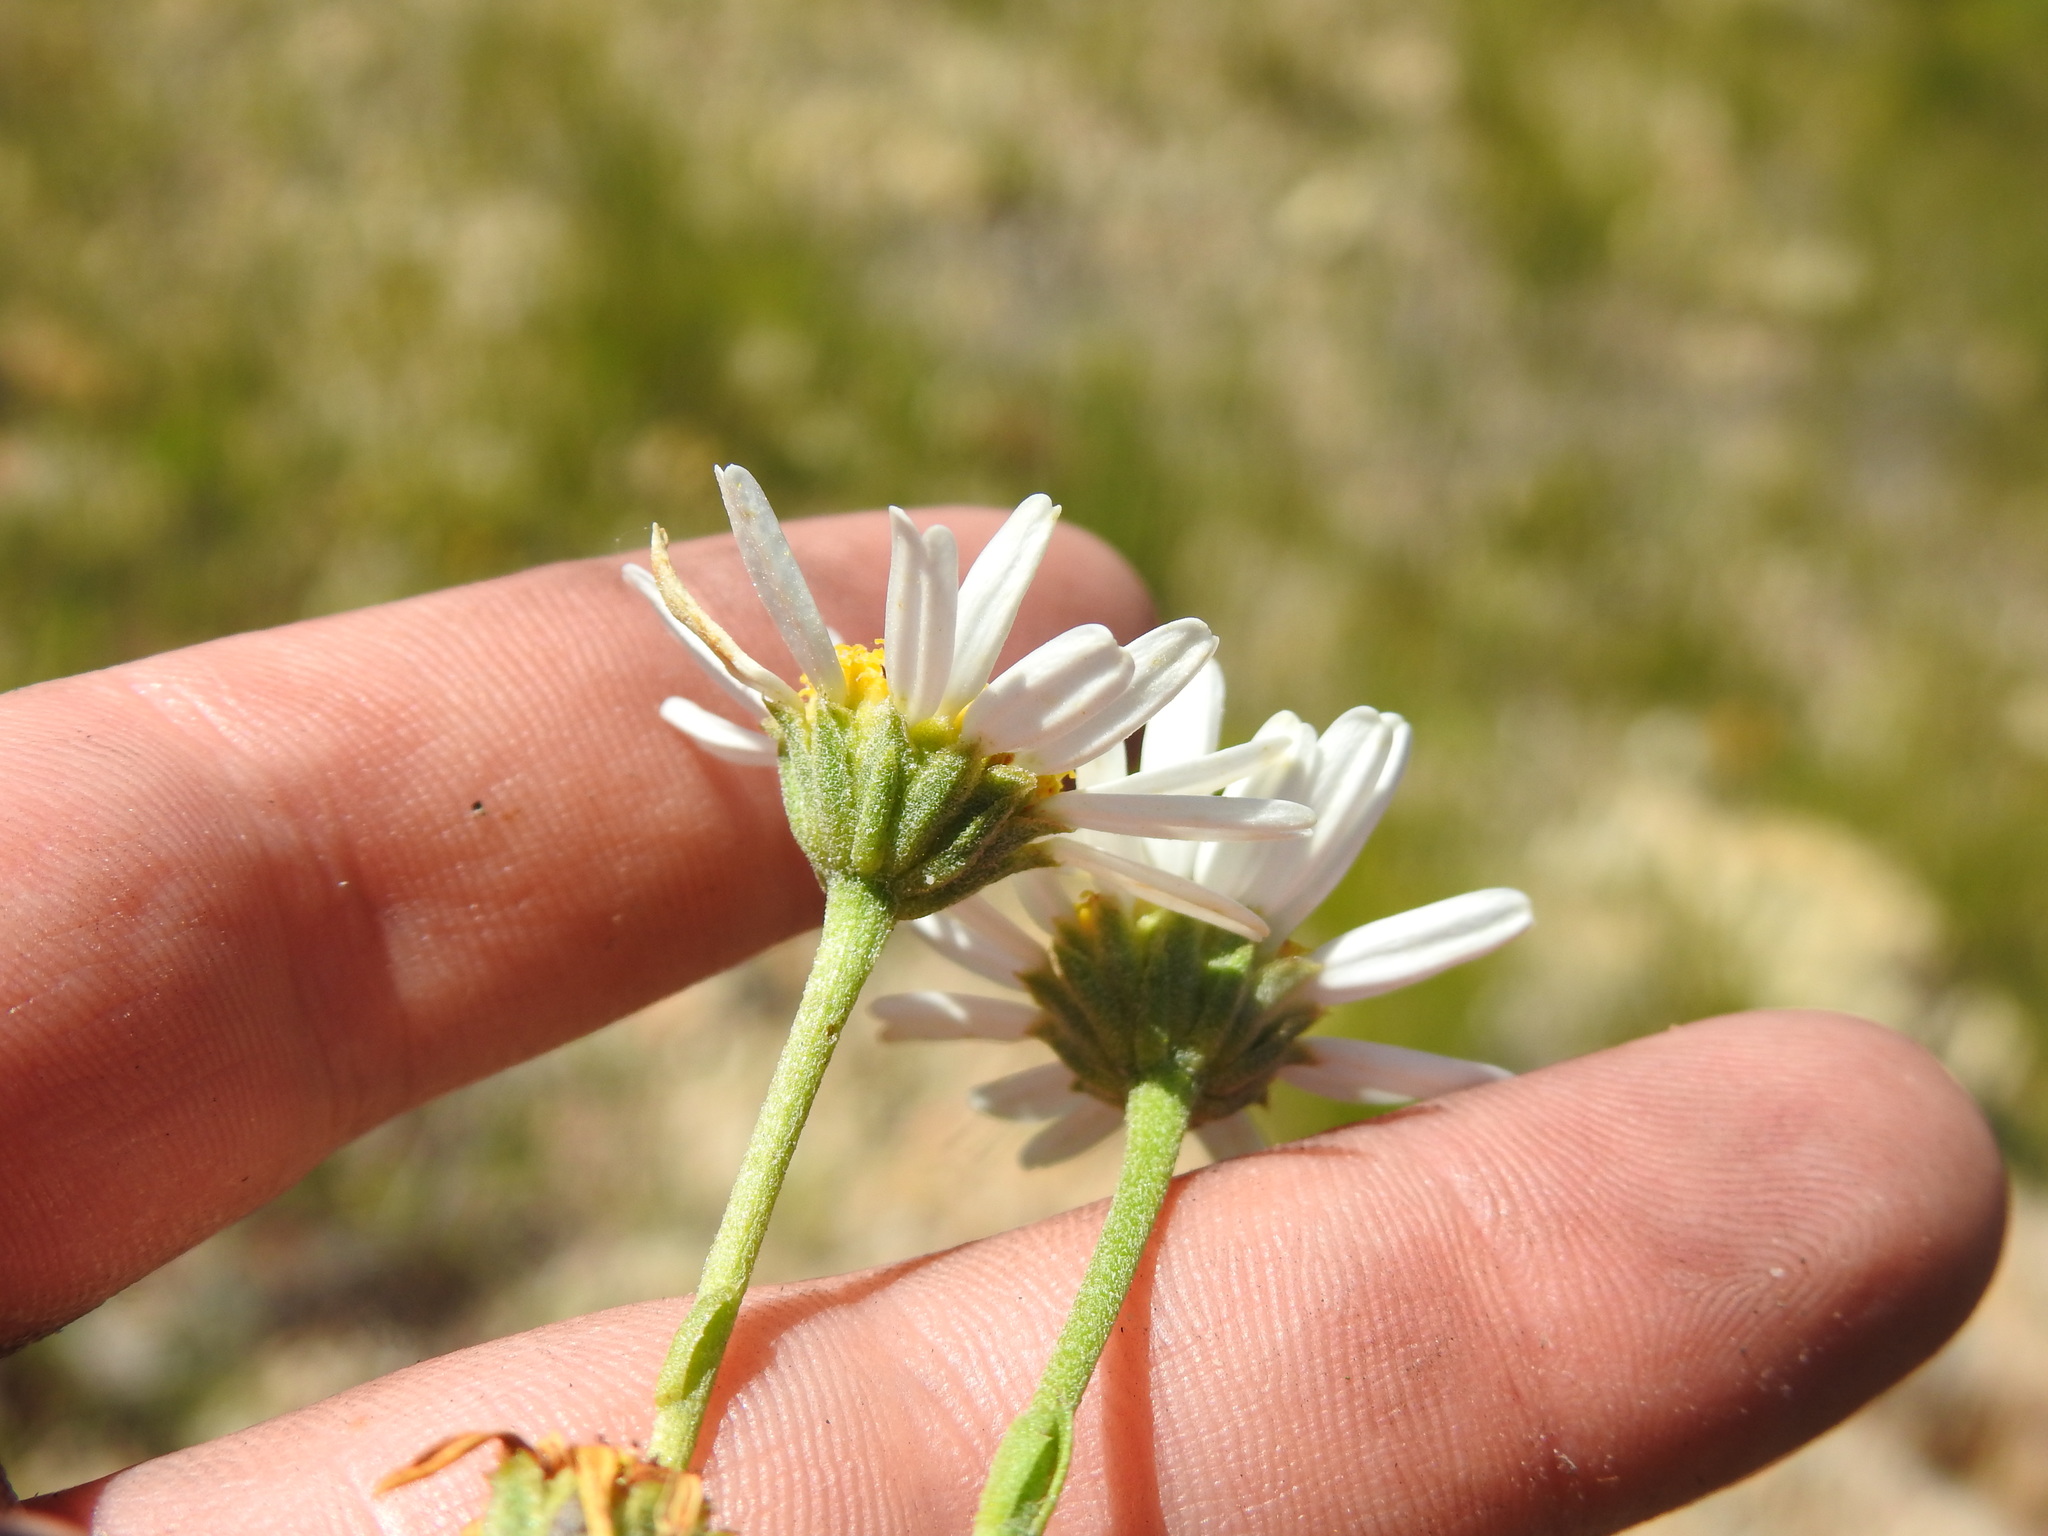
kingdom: Plantae
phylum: Tracheophyta
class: Magnoliopsida
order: Asterales
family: Asteraceae
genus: Osmitopsis
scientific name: Osmitopsis afra
